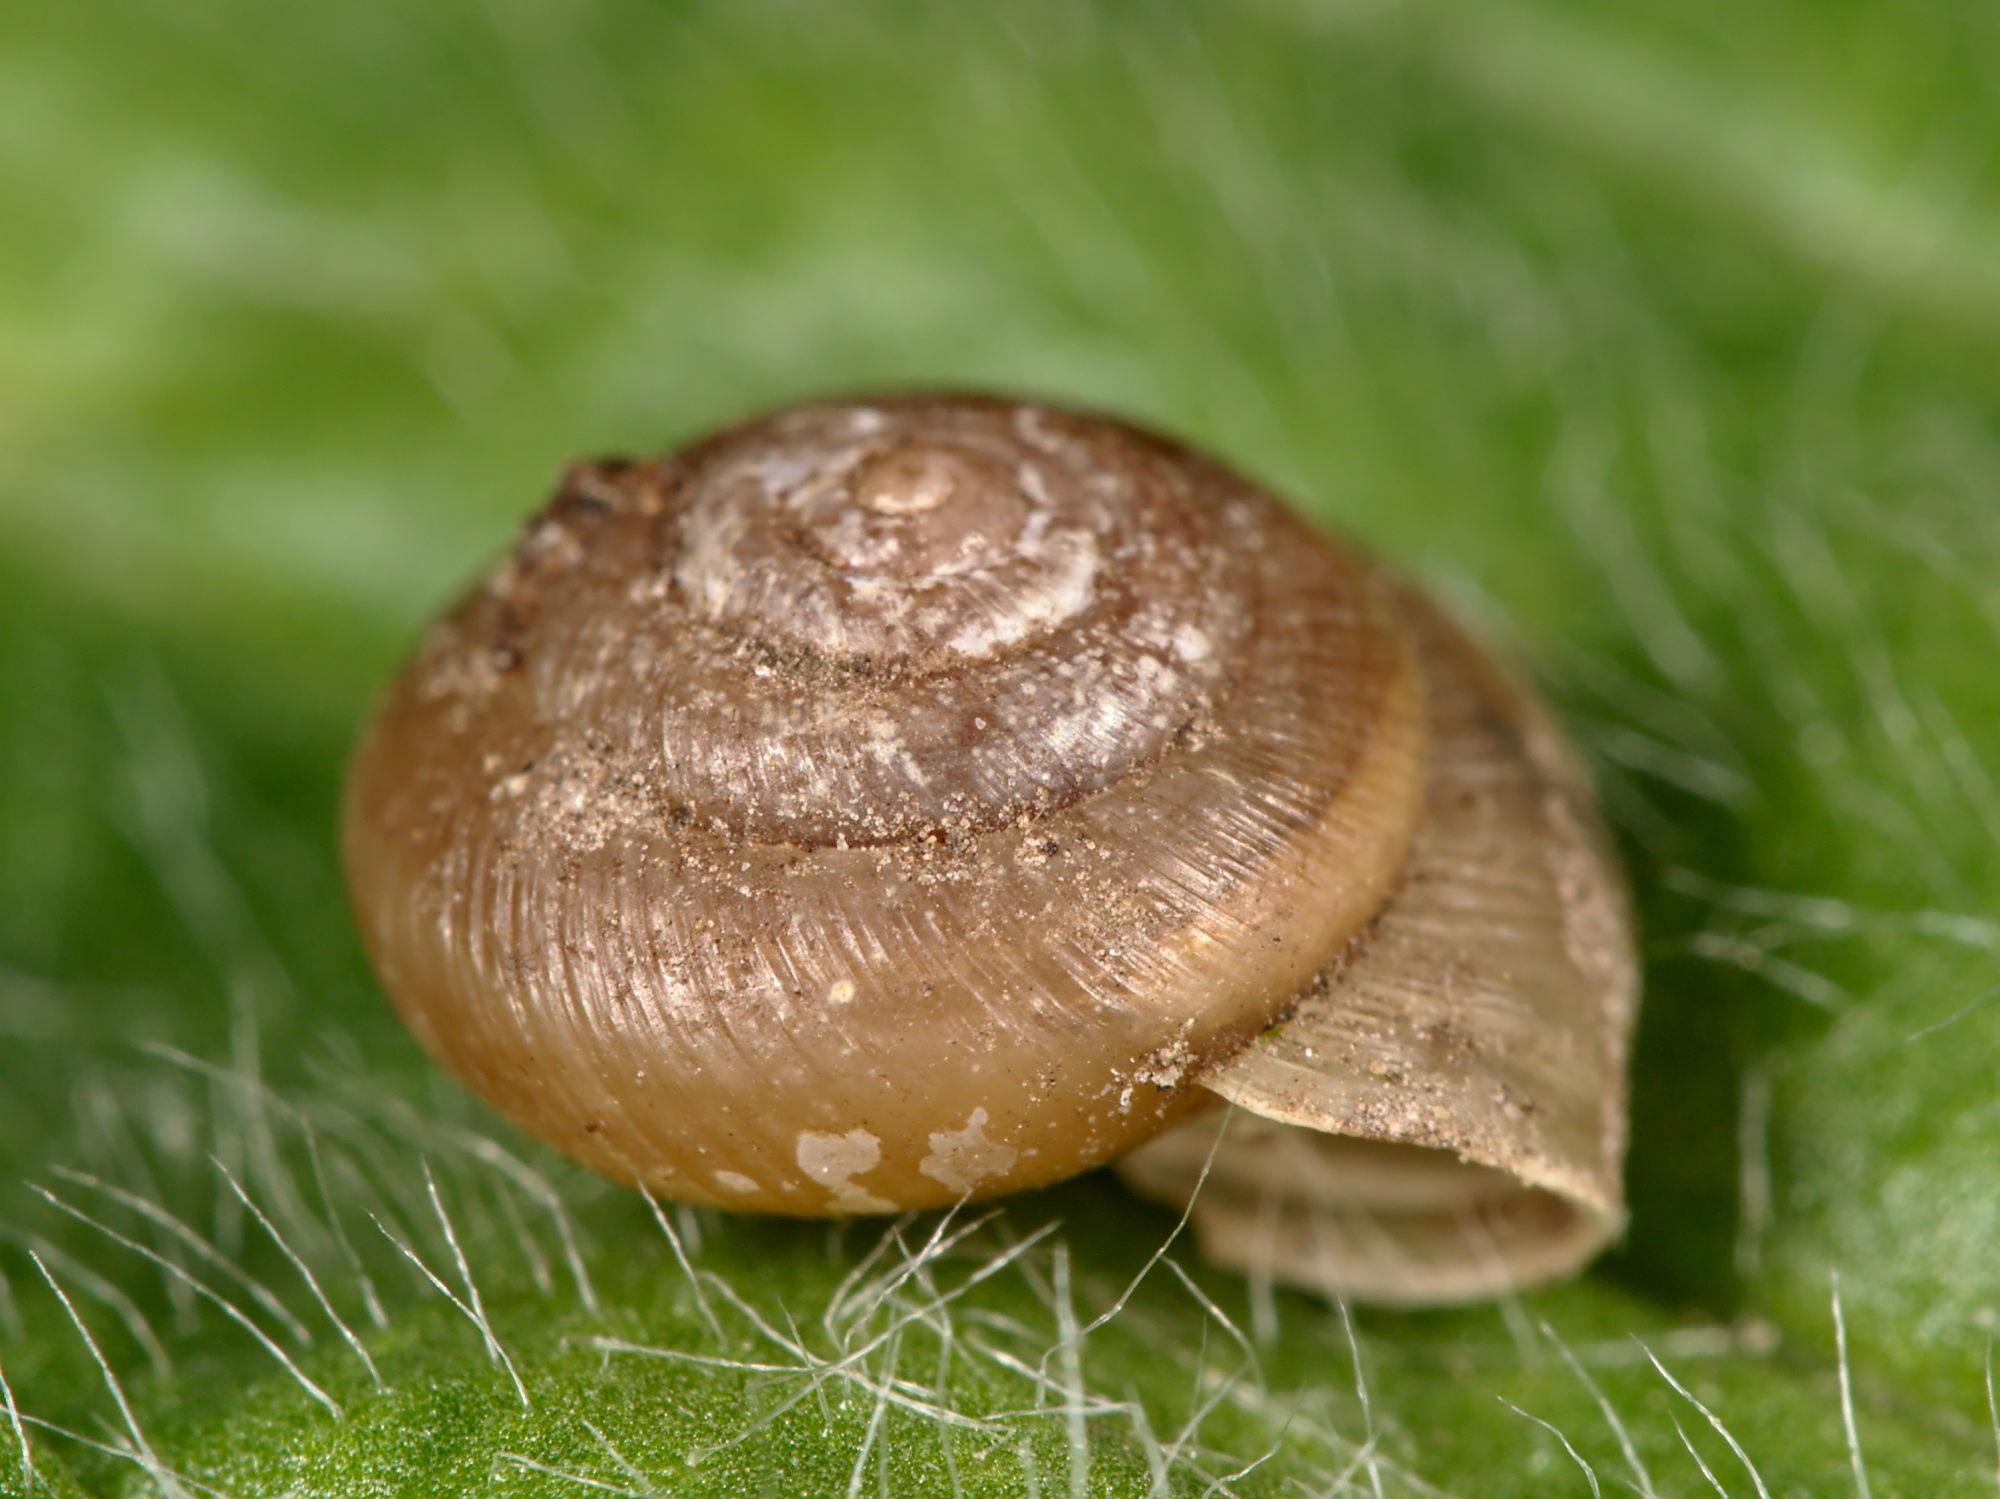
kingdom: Animalia
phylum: Mollusca
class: Gastropoda
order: Stylommatophora
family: Hygromiidae
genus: Trochulus
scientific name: Trochulus hispidus
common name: Hairy snail
